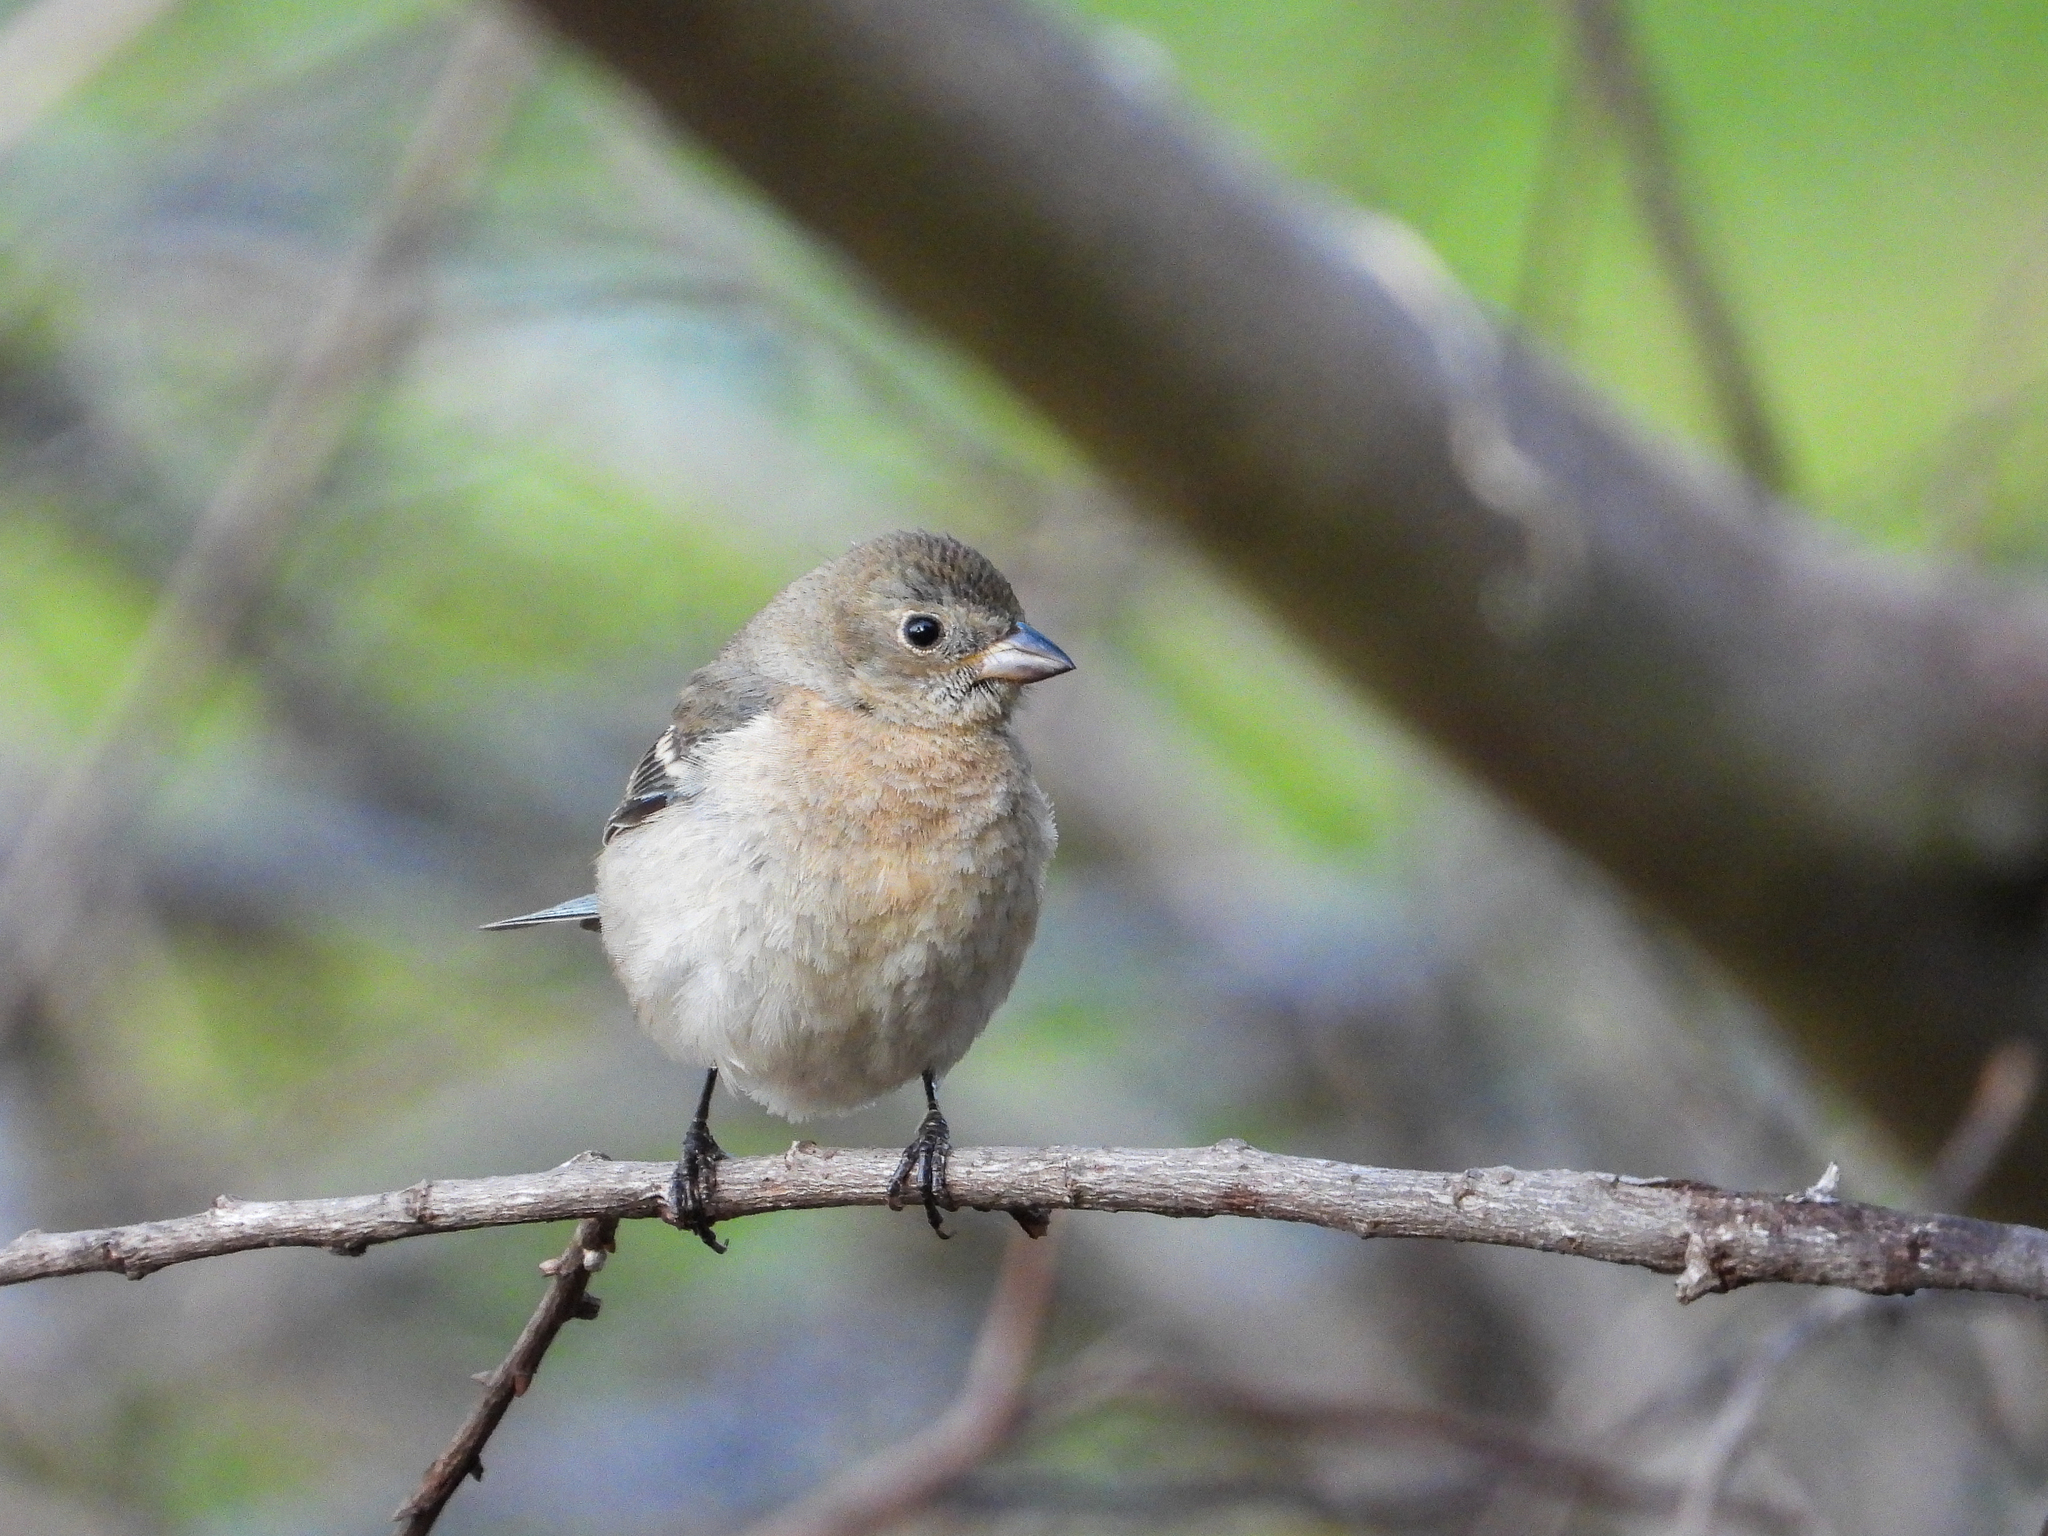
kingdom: Animalia
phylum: Chordata
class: Aves
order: Passeriformes
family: Cardinalidae
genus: Passerina
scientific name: Passerina amoena
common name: Lazuli bunting
